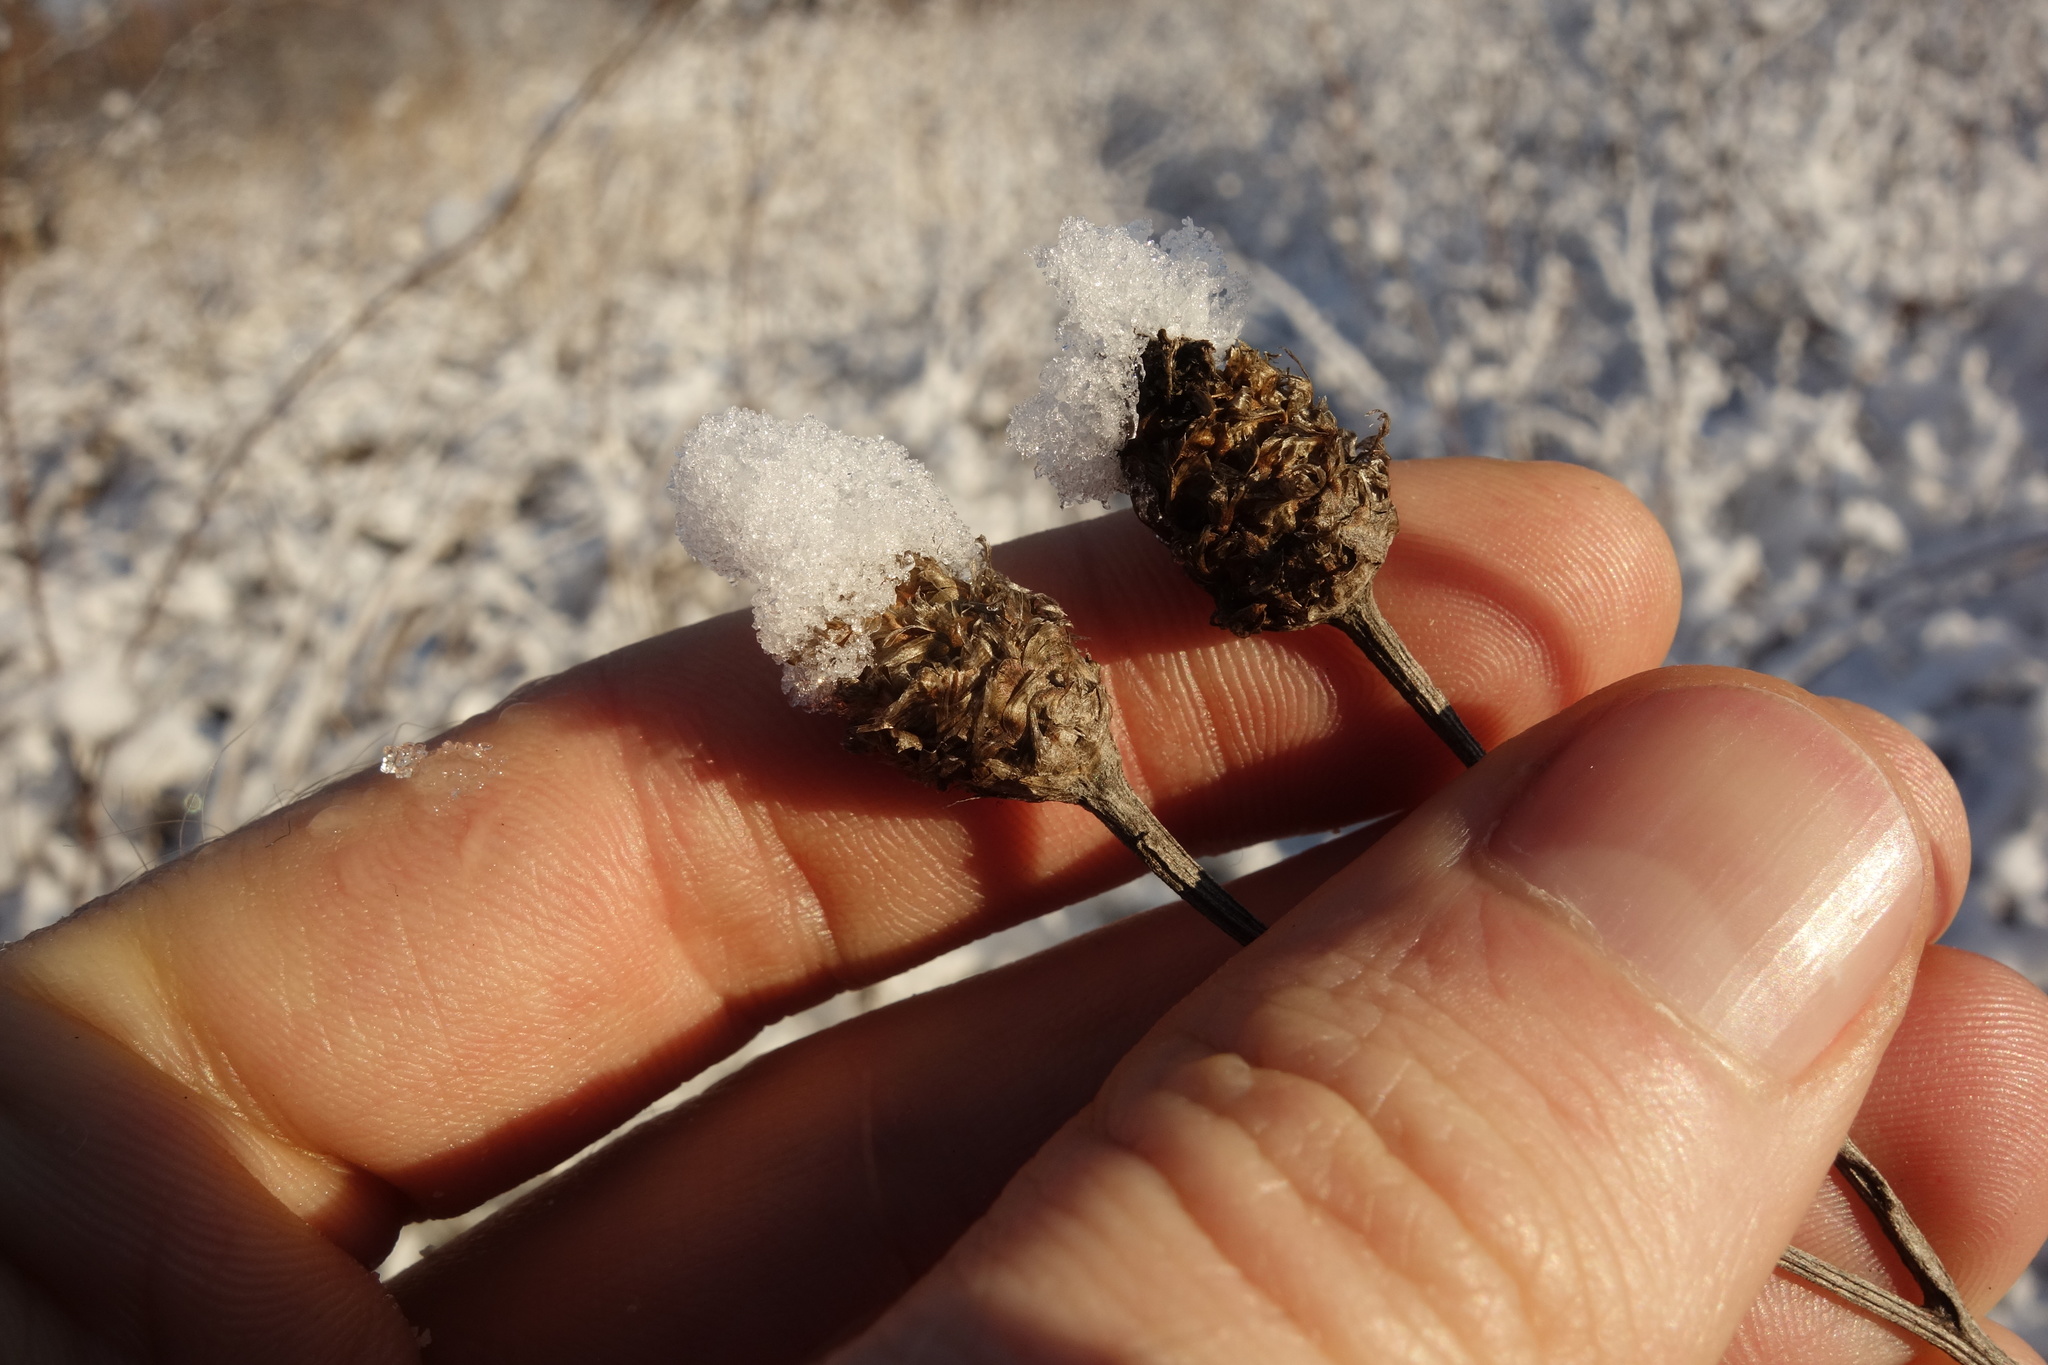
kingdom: Plantae
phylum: Tracheophyta
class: Magnoliopsida
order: Asterales
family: Asteraceae
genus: Centaurea
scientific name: Centaurea jacea
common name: Brown knapweed
